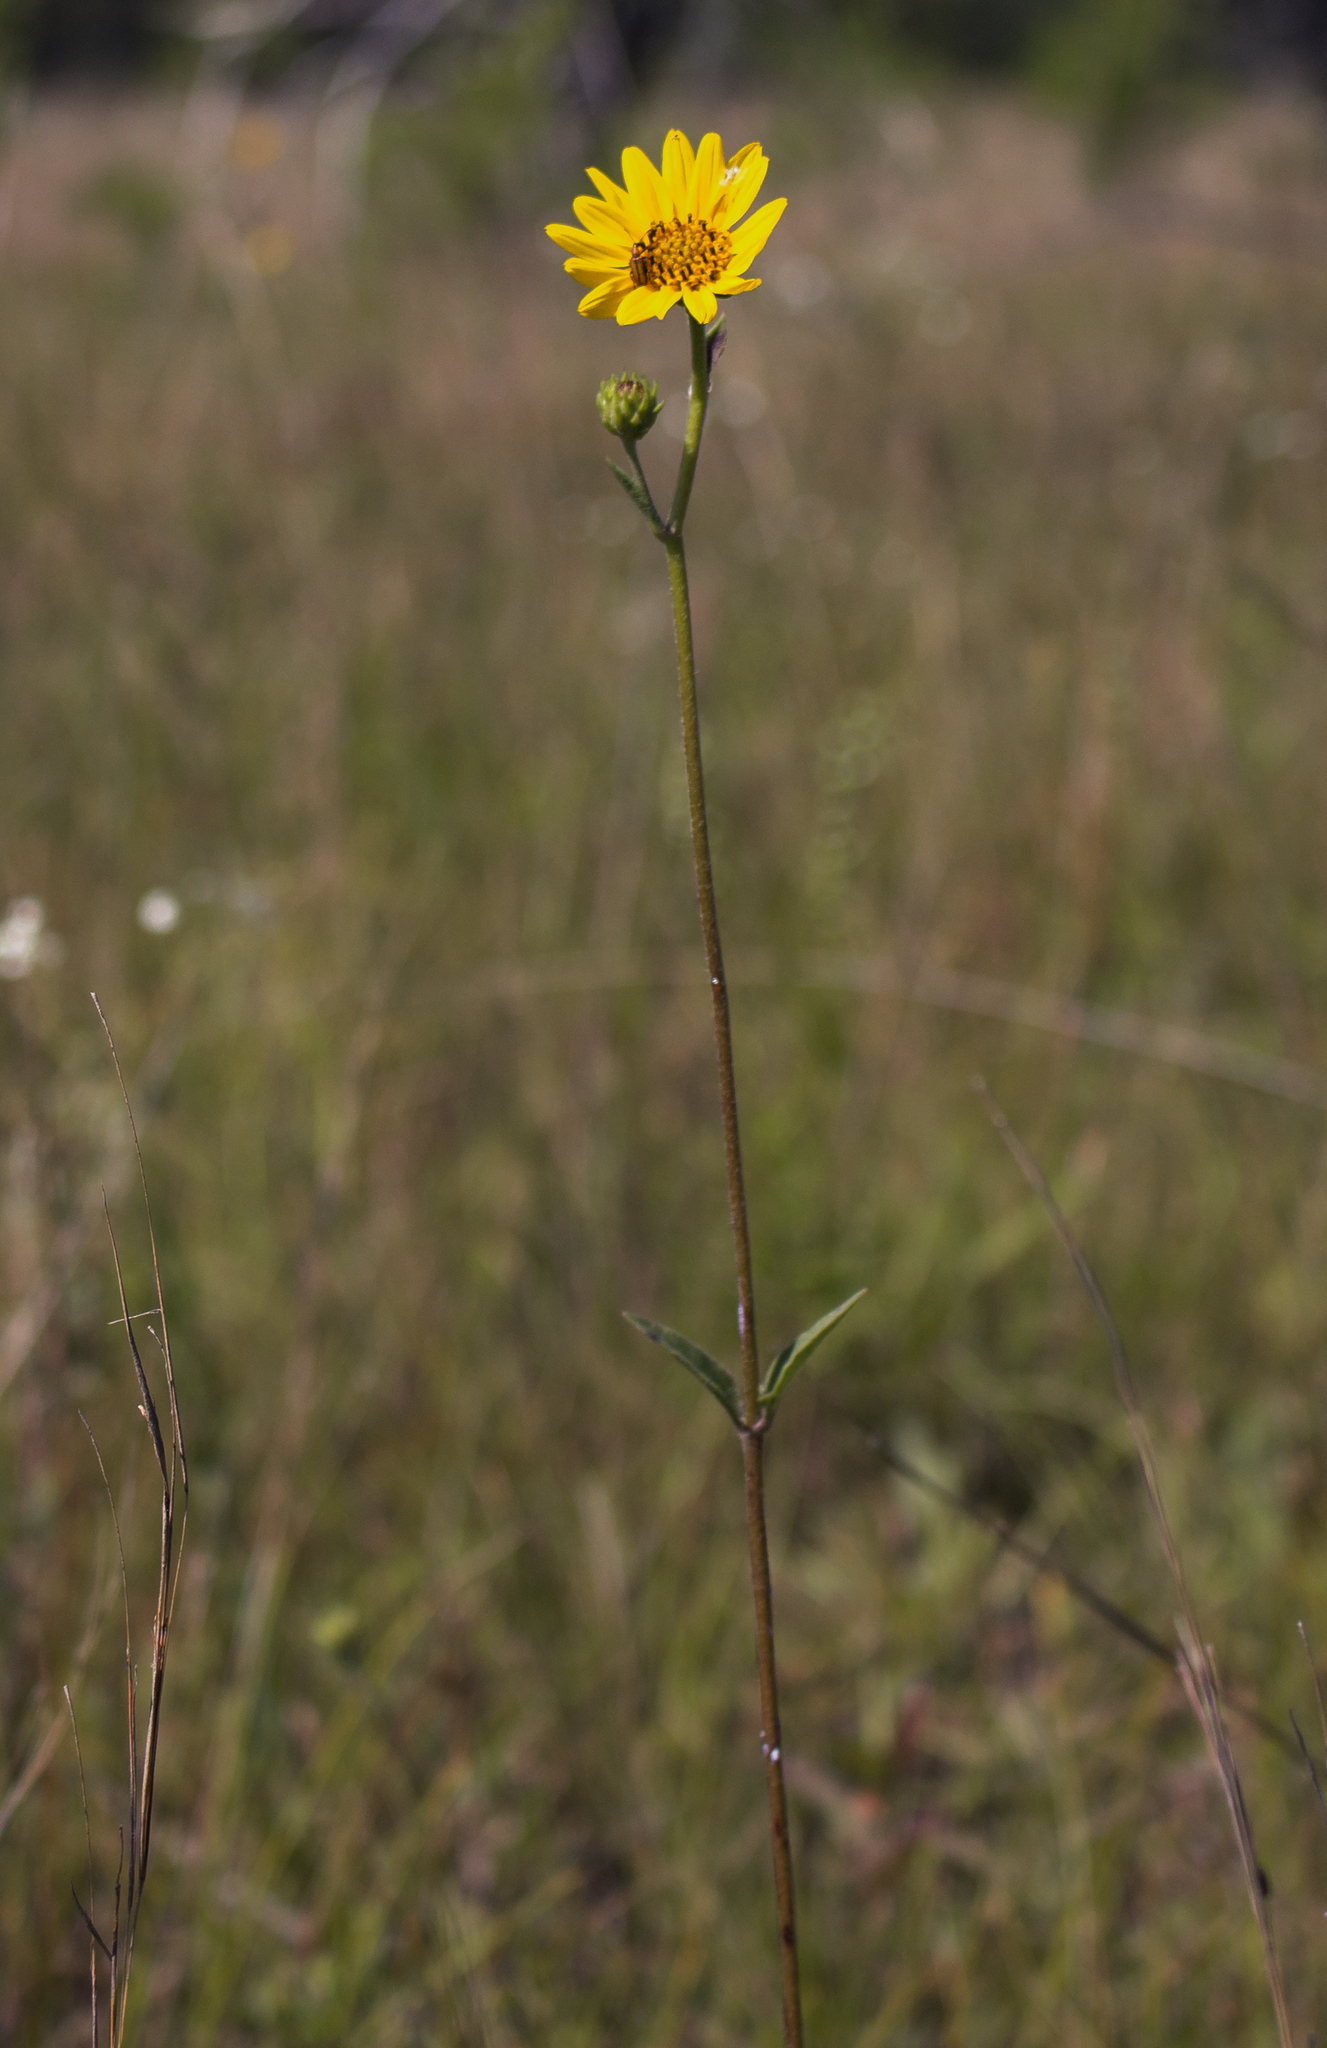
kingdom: Plantae
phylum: Tracheophyta
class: Magnoliopsida
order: Asterales
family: Asteraceae
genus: Helianthus
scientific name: Helianthus occidentalis
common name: Western sunflower
